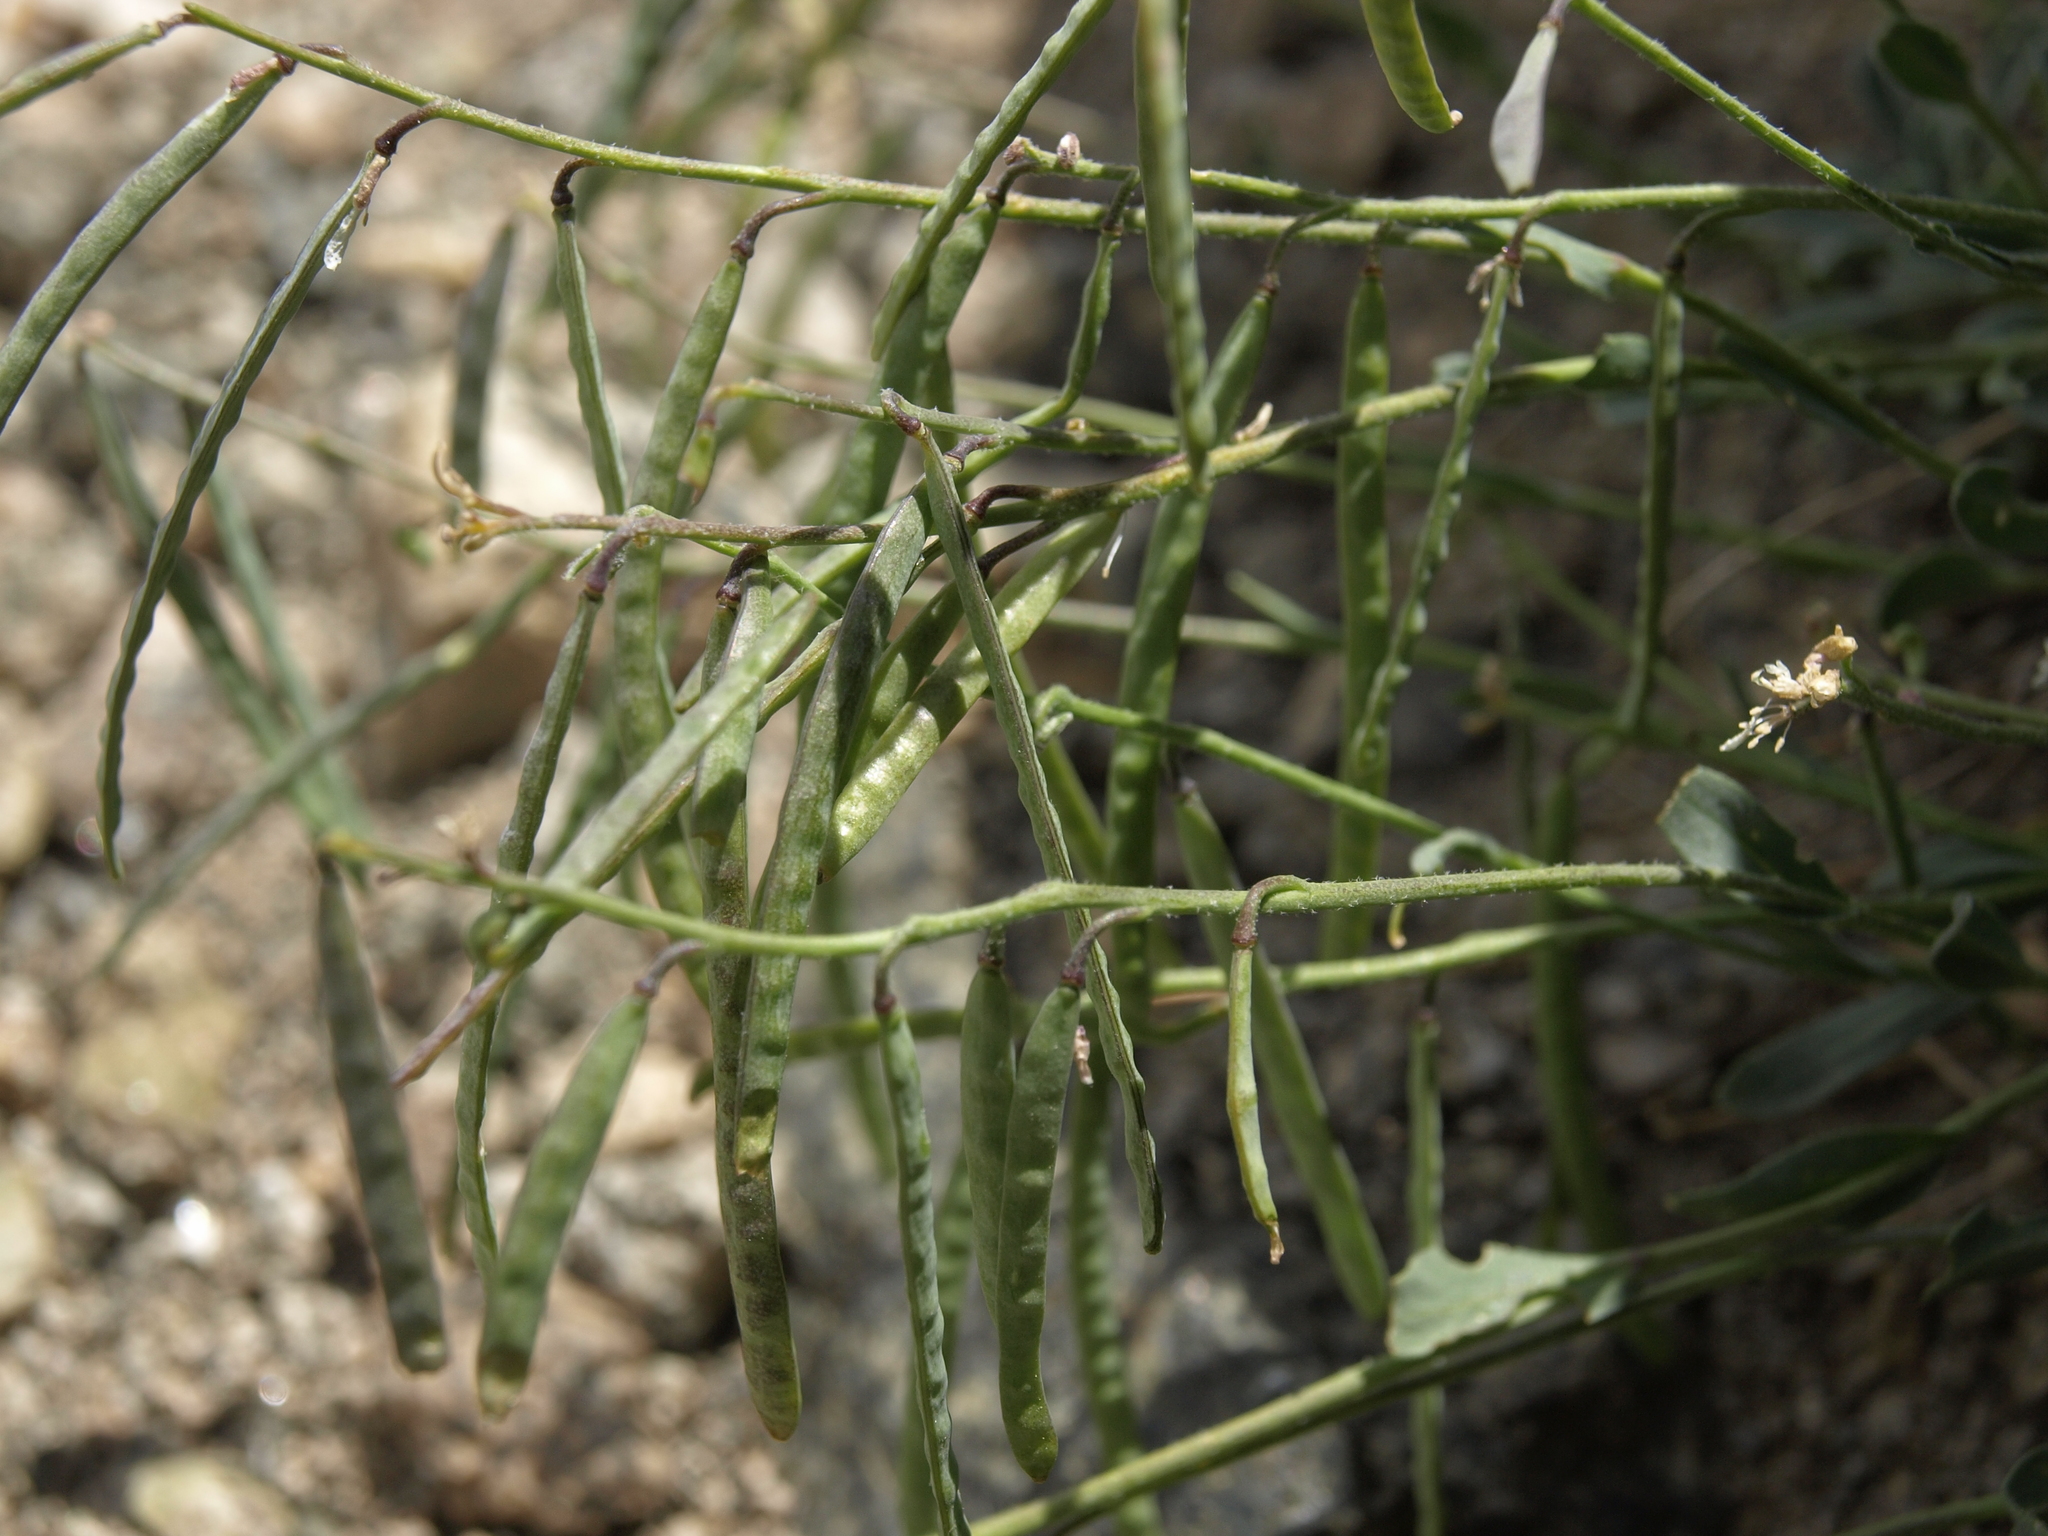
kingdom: Plantae
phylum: Tracheophyta
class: Magnoliopsida
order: Brassicales
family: Brassicaceae
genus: Boechera
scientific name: Boechera lemmonii
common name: Lemmon's rockcress
